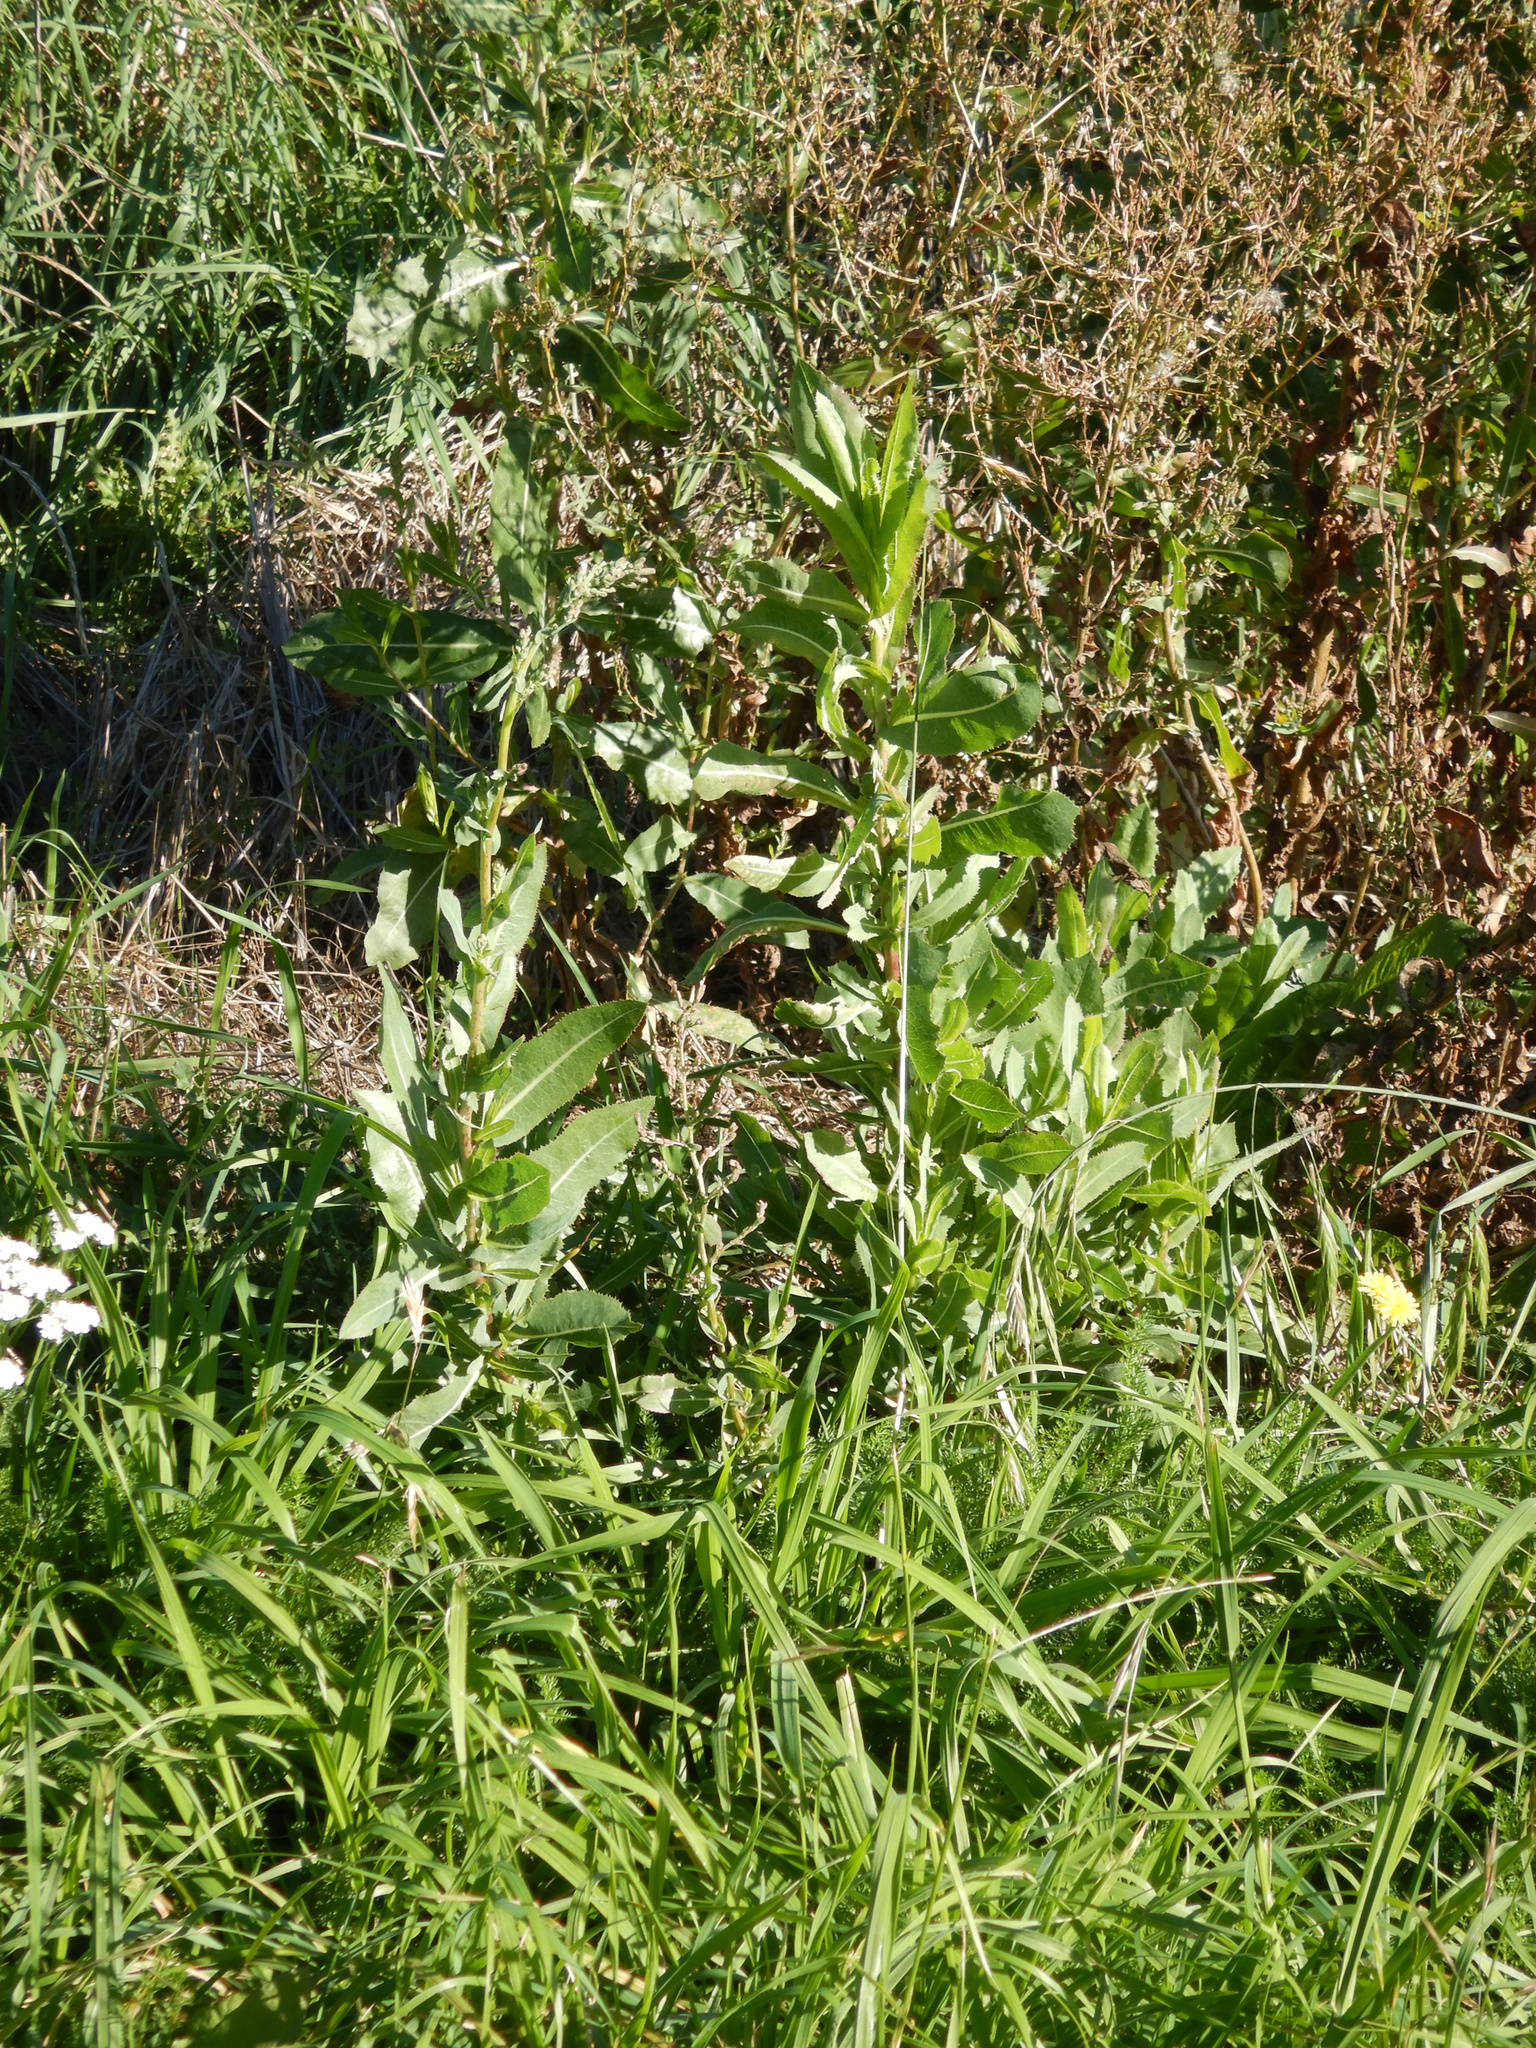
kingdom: Plantae
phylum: Tracheophyta
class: Magnoliopsida
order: Asterales
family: Asteraceae
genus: Lactuca
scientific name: Lactuca serriola
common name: Prickly lettuce
